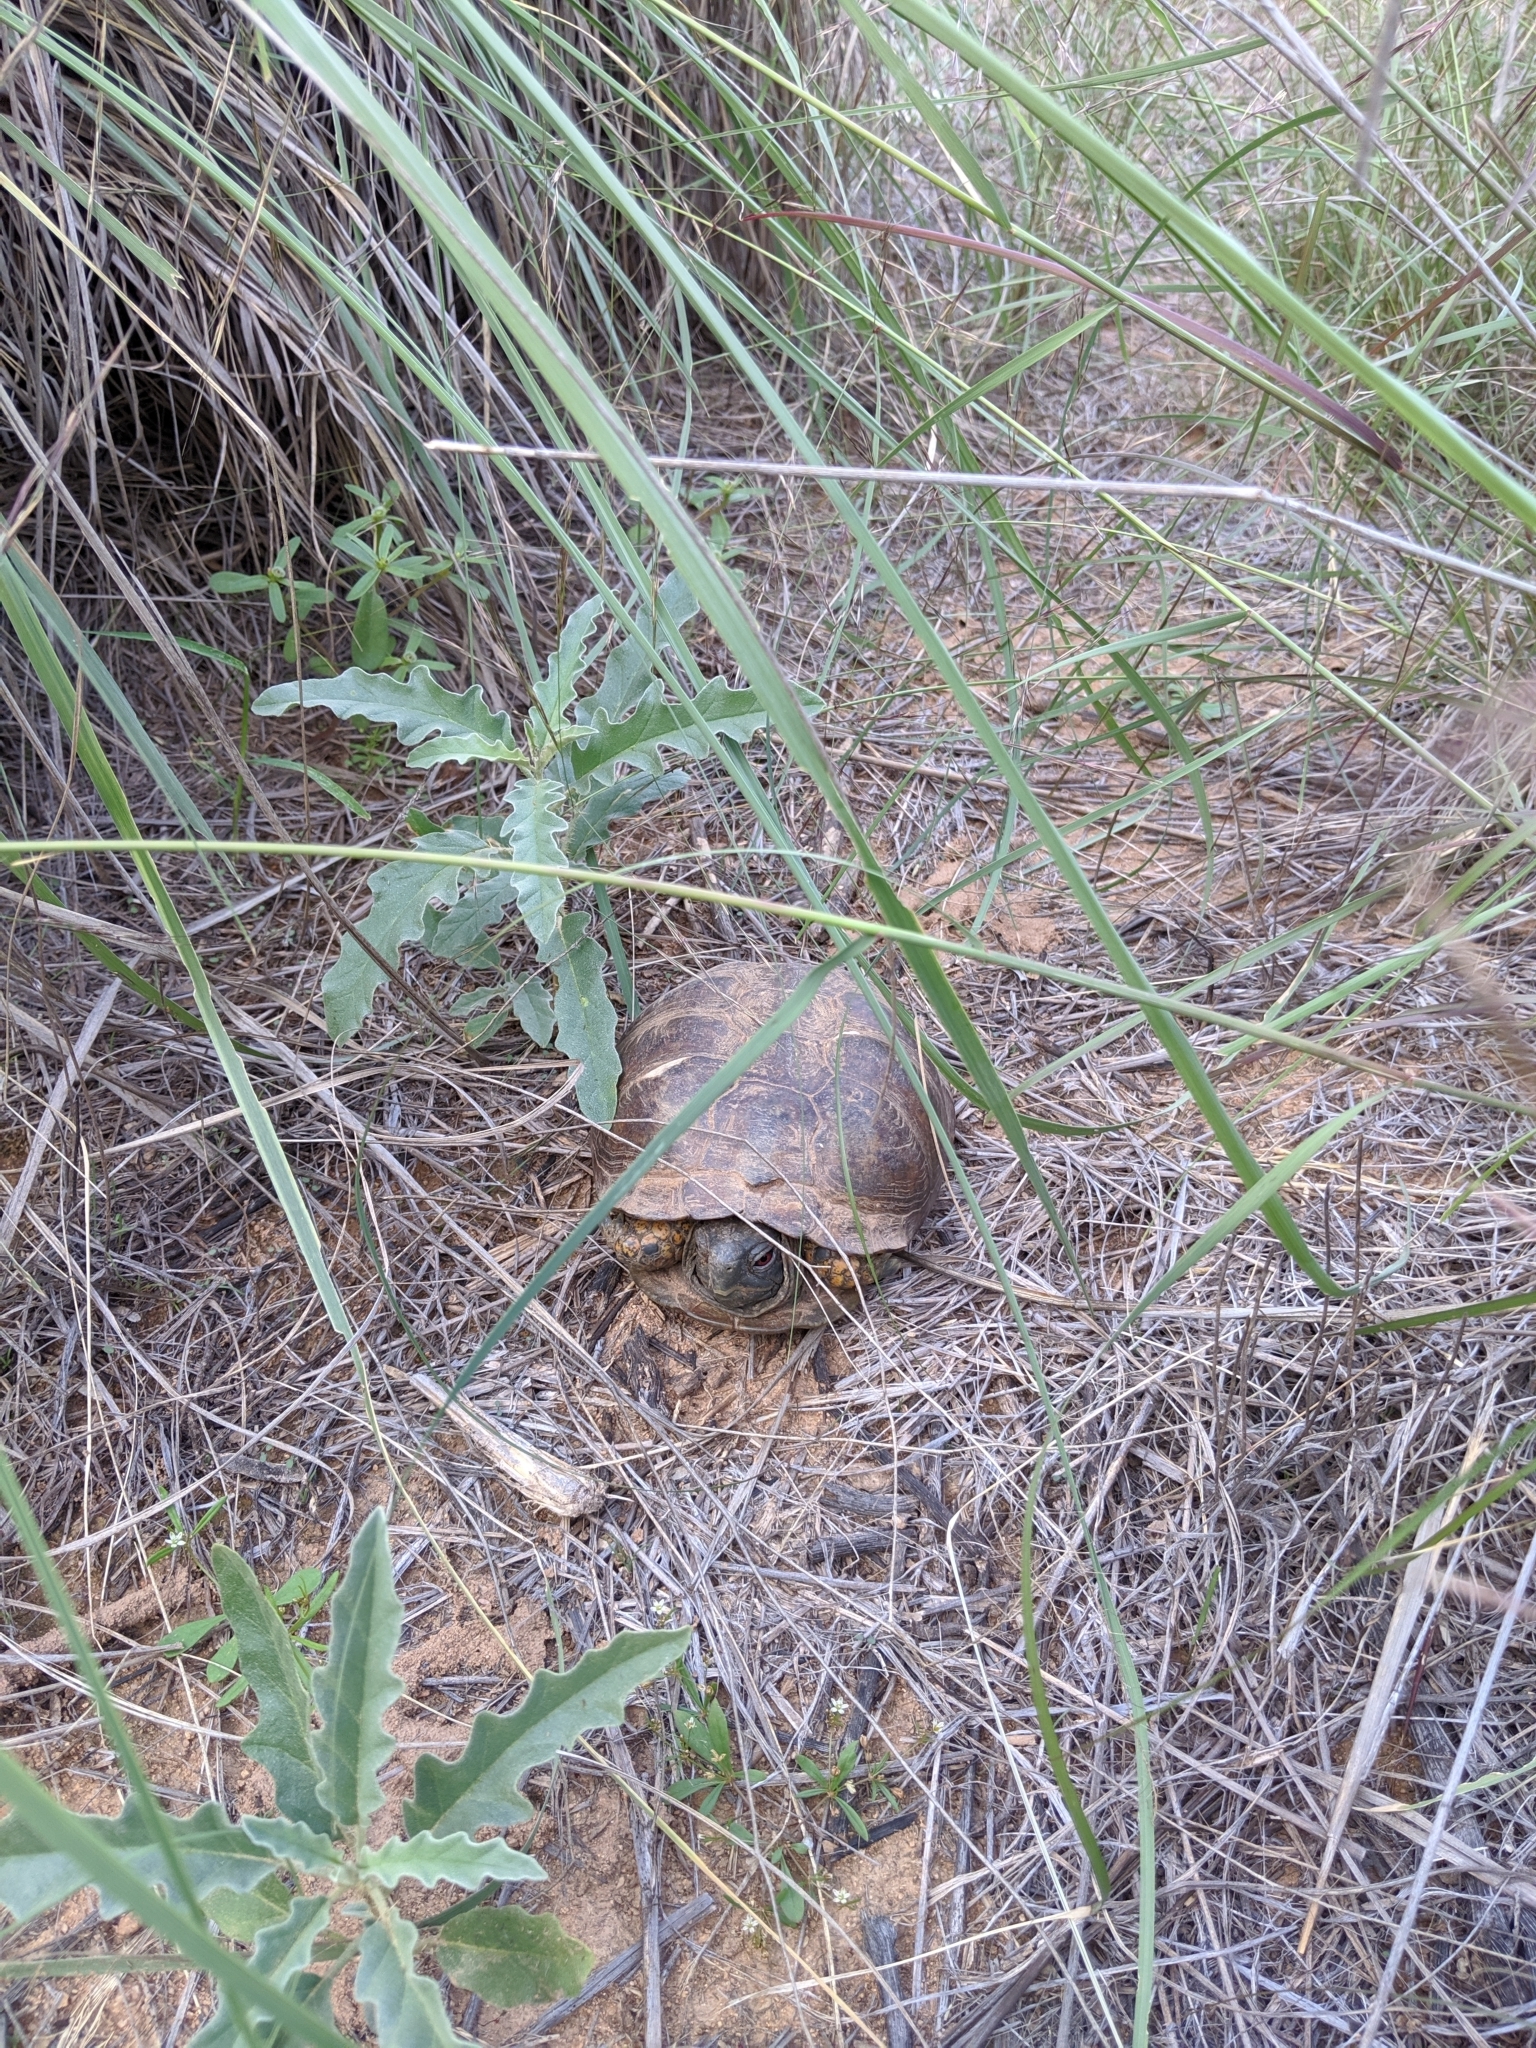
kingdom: Animalia
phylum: Chordata
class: Testudines
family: Emydidae
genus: Terrapene
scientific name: Terrapene ornata
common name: Western box turtle
